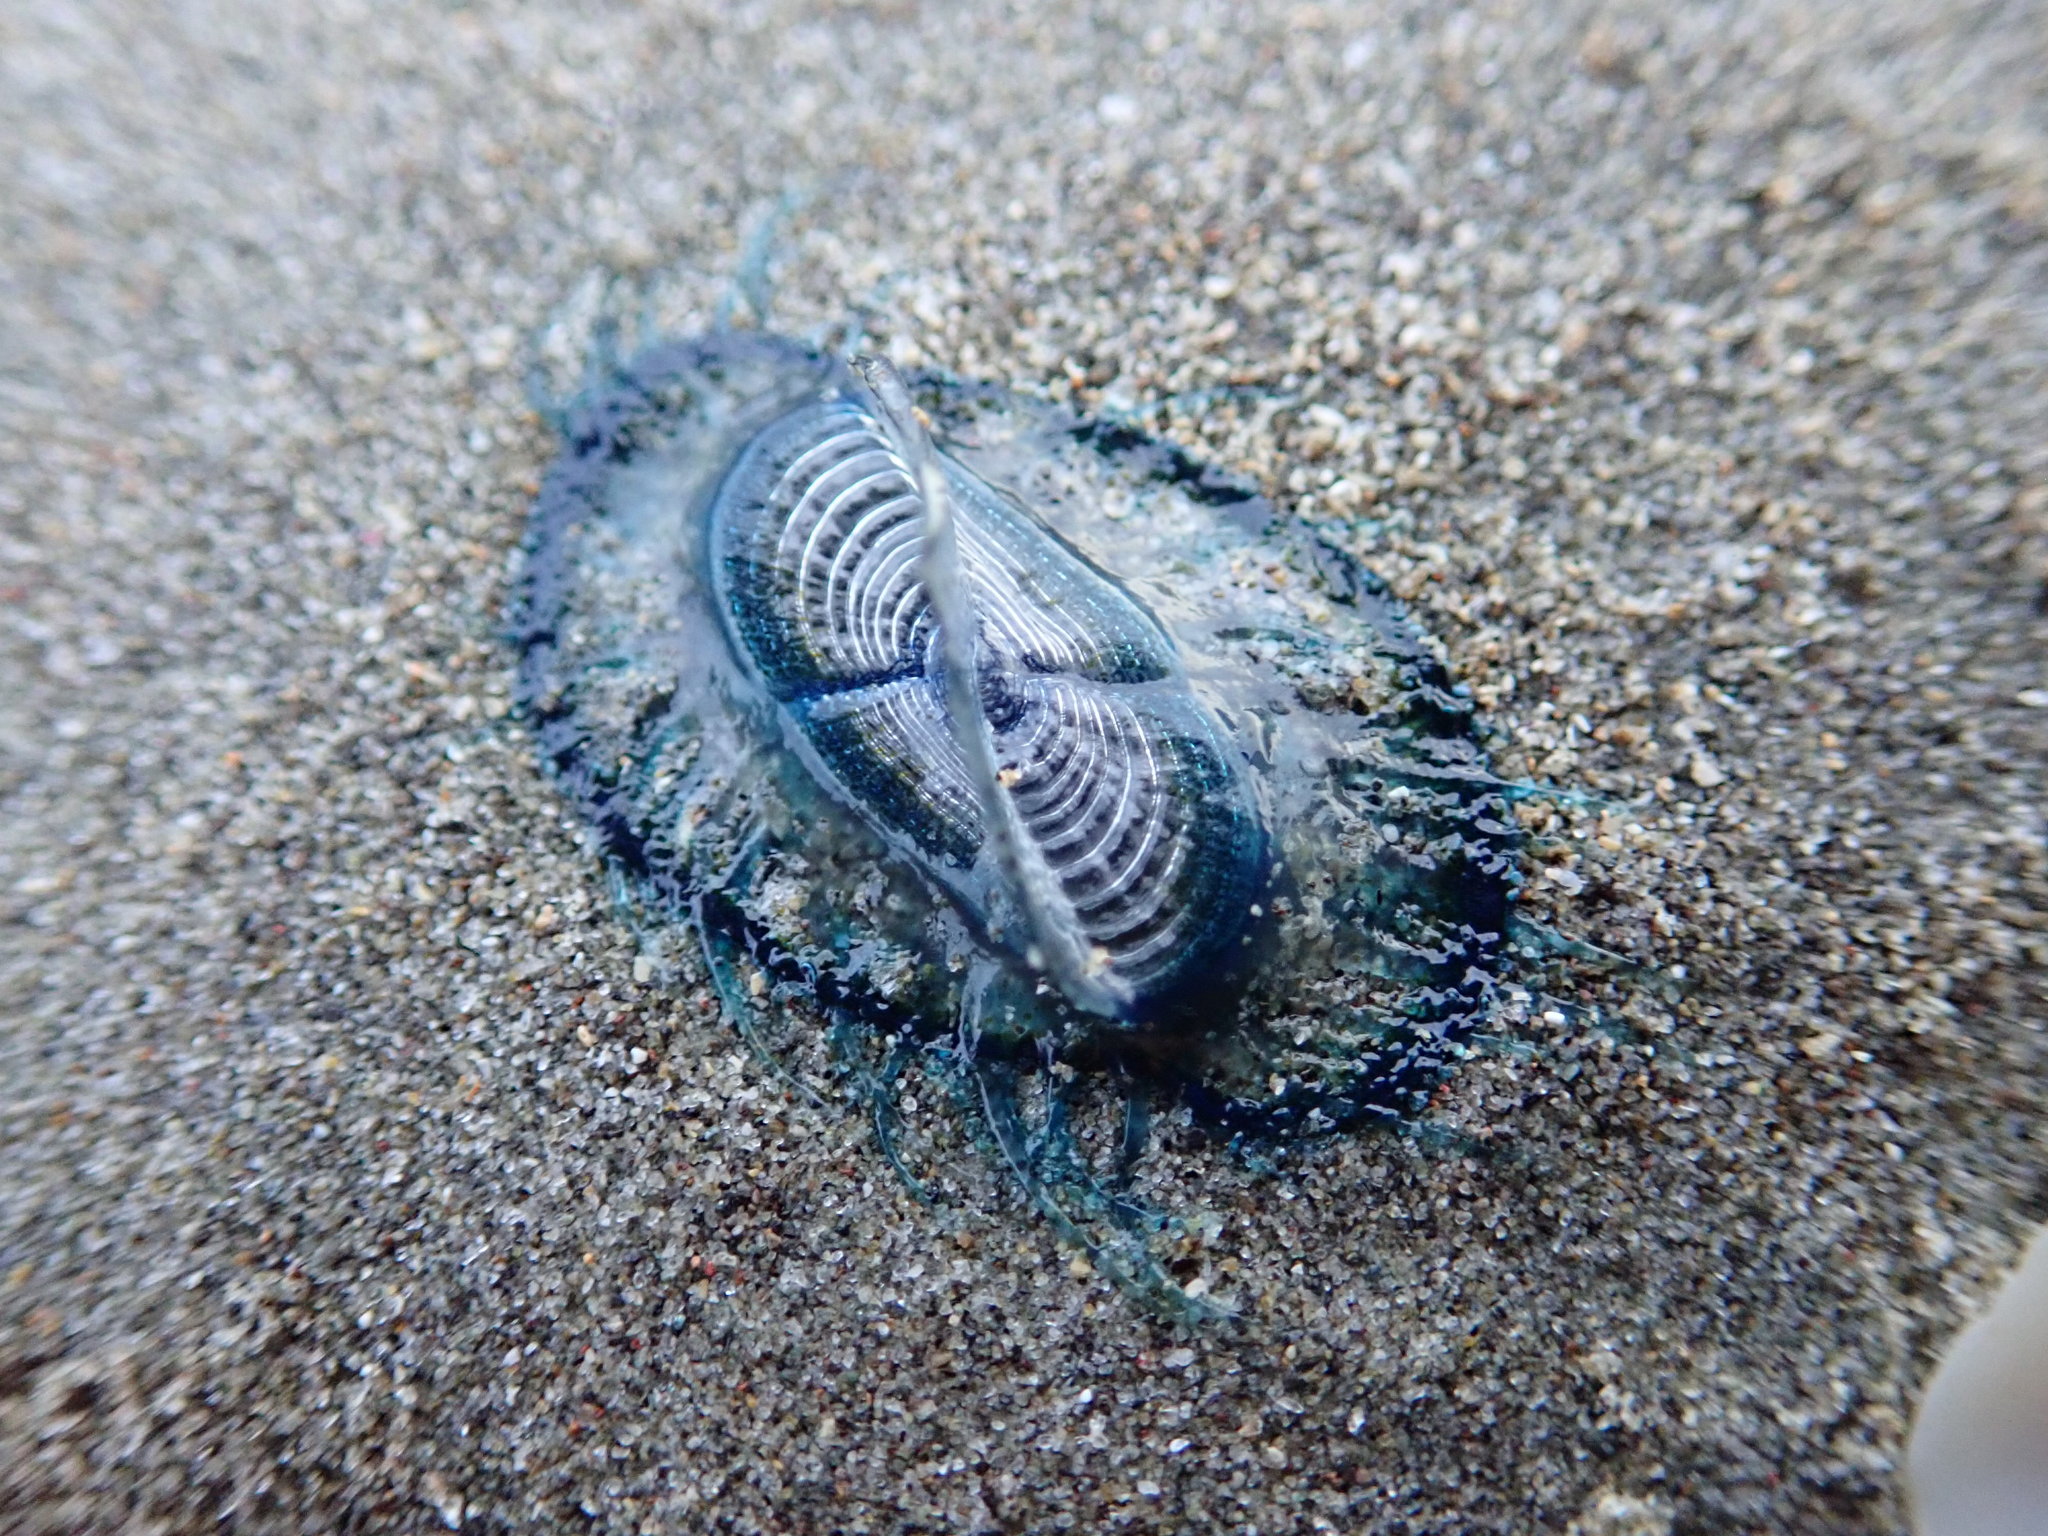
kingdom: Animalia
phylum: Cnidaria
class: Hydrozoa
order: Anthoathecata
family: Porpitidae
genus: Velella
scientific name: Velella velella
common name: By-the-wind-sailor
